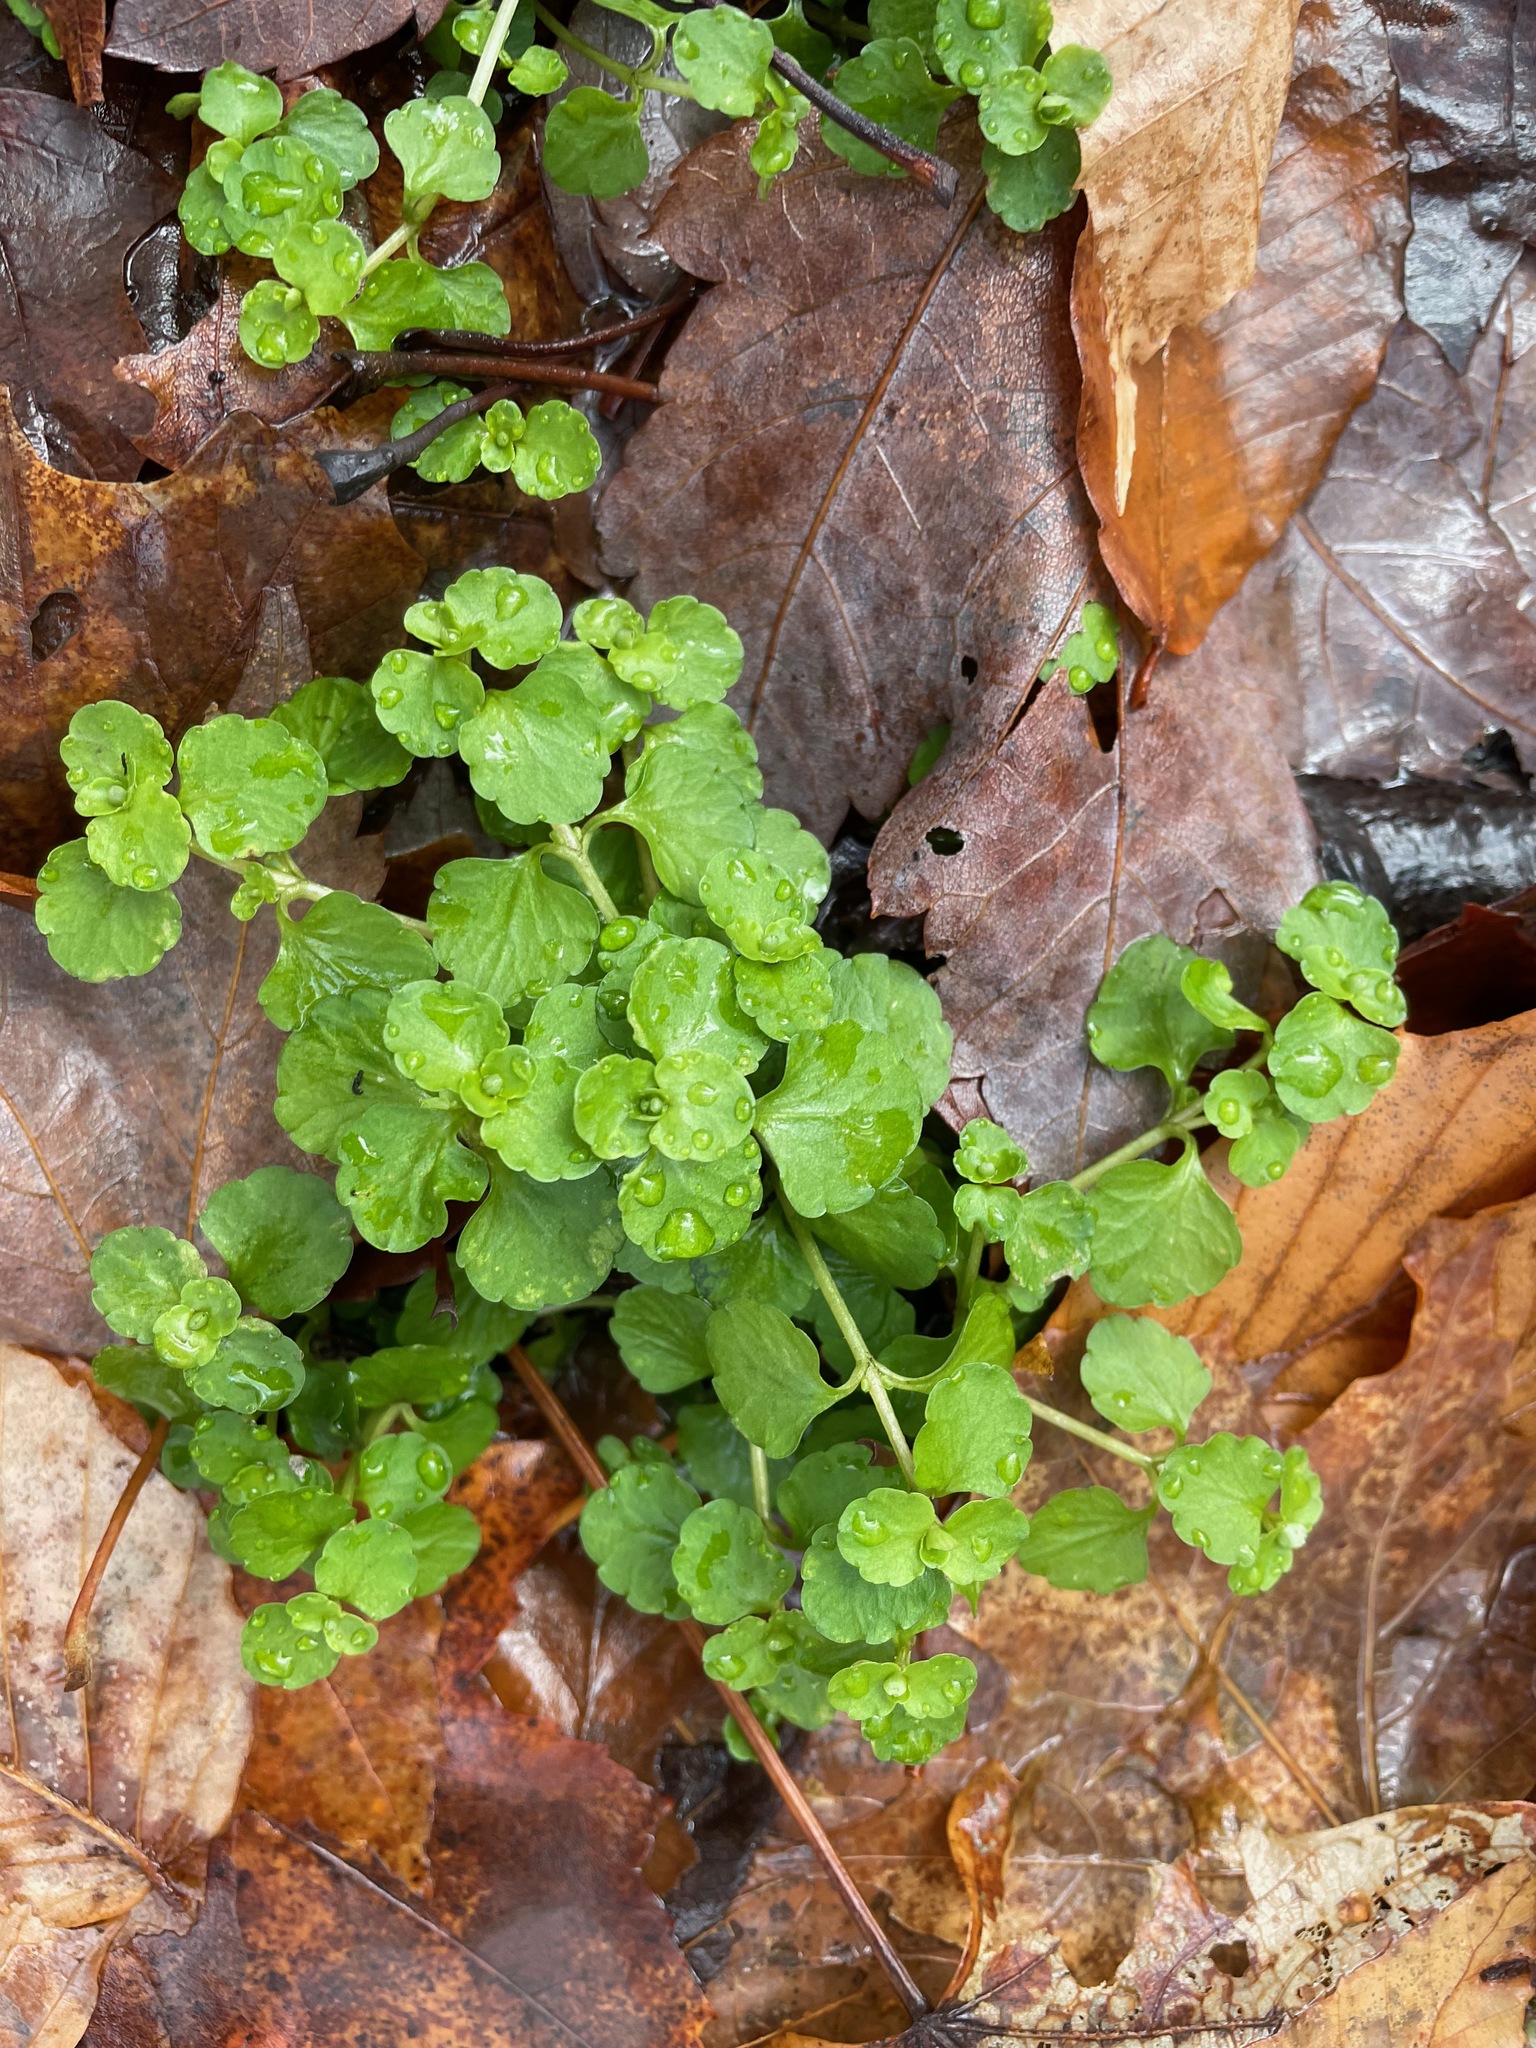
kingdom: Plantae
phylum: Tracheophyta
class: Magnoliopsida
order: Saxifragales
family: Saxifragaceae
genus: Chrysosplenium
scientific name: Chrysosplenium americanum
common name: American golden-saxifrage
